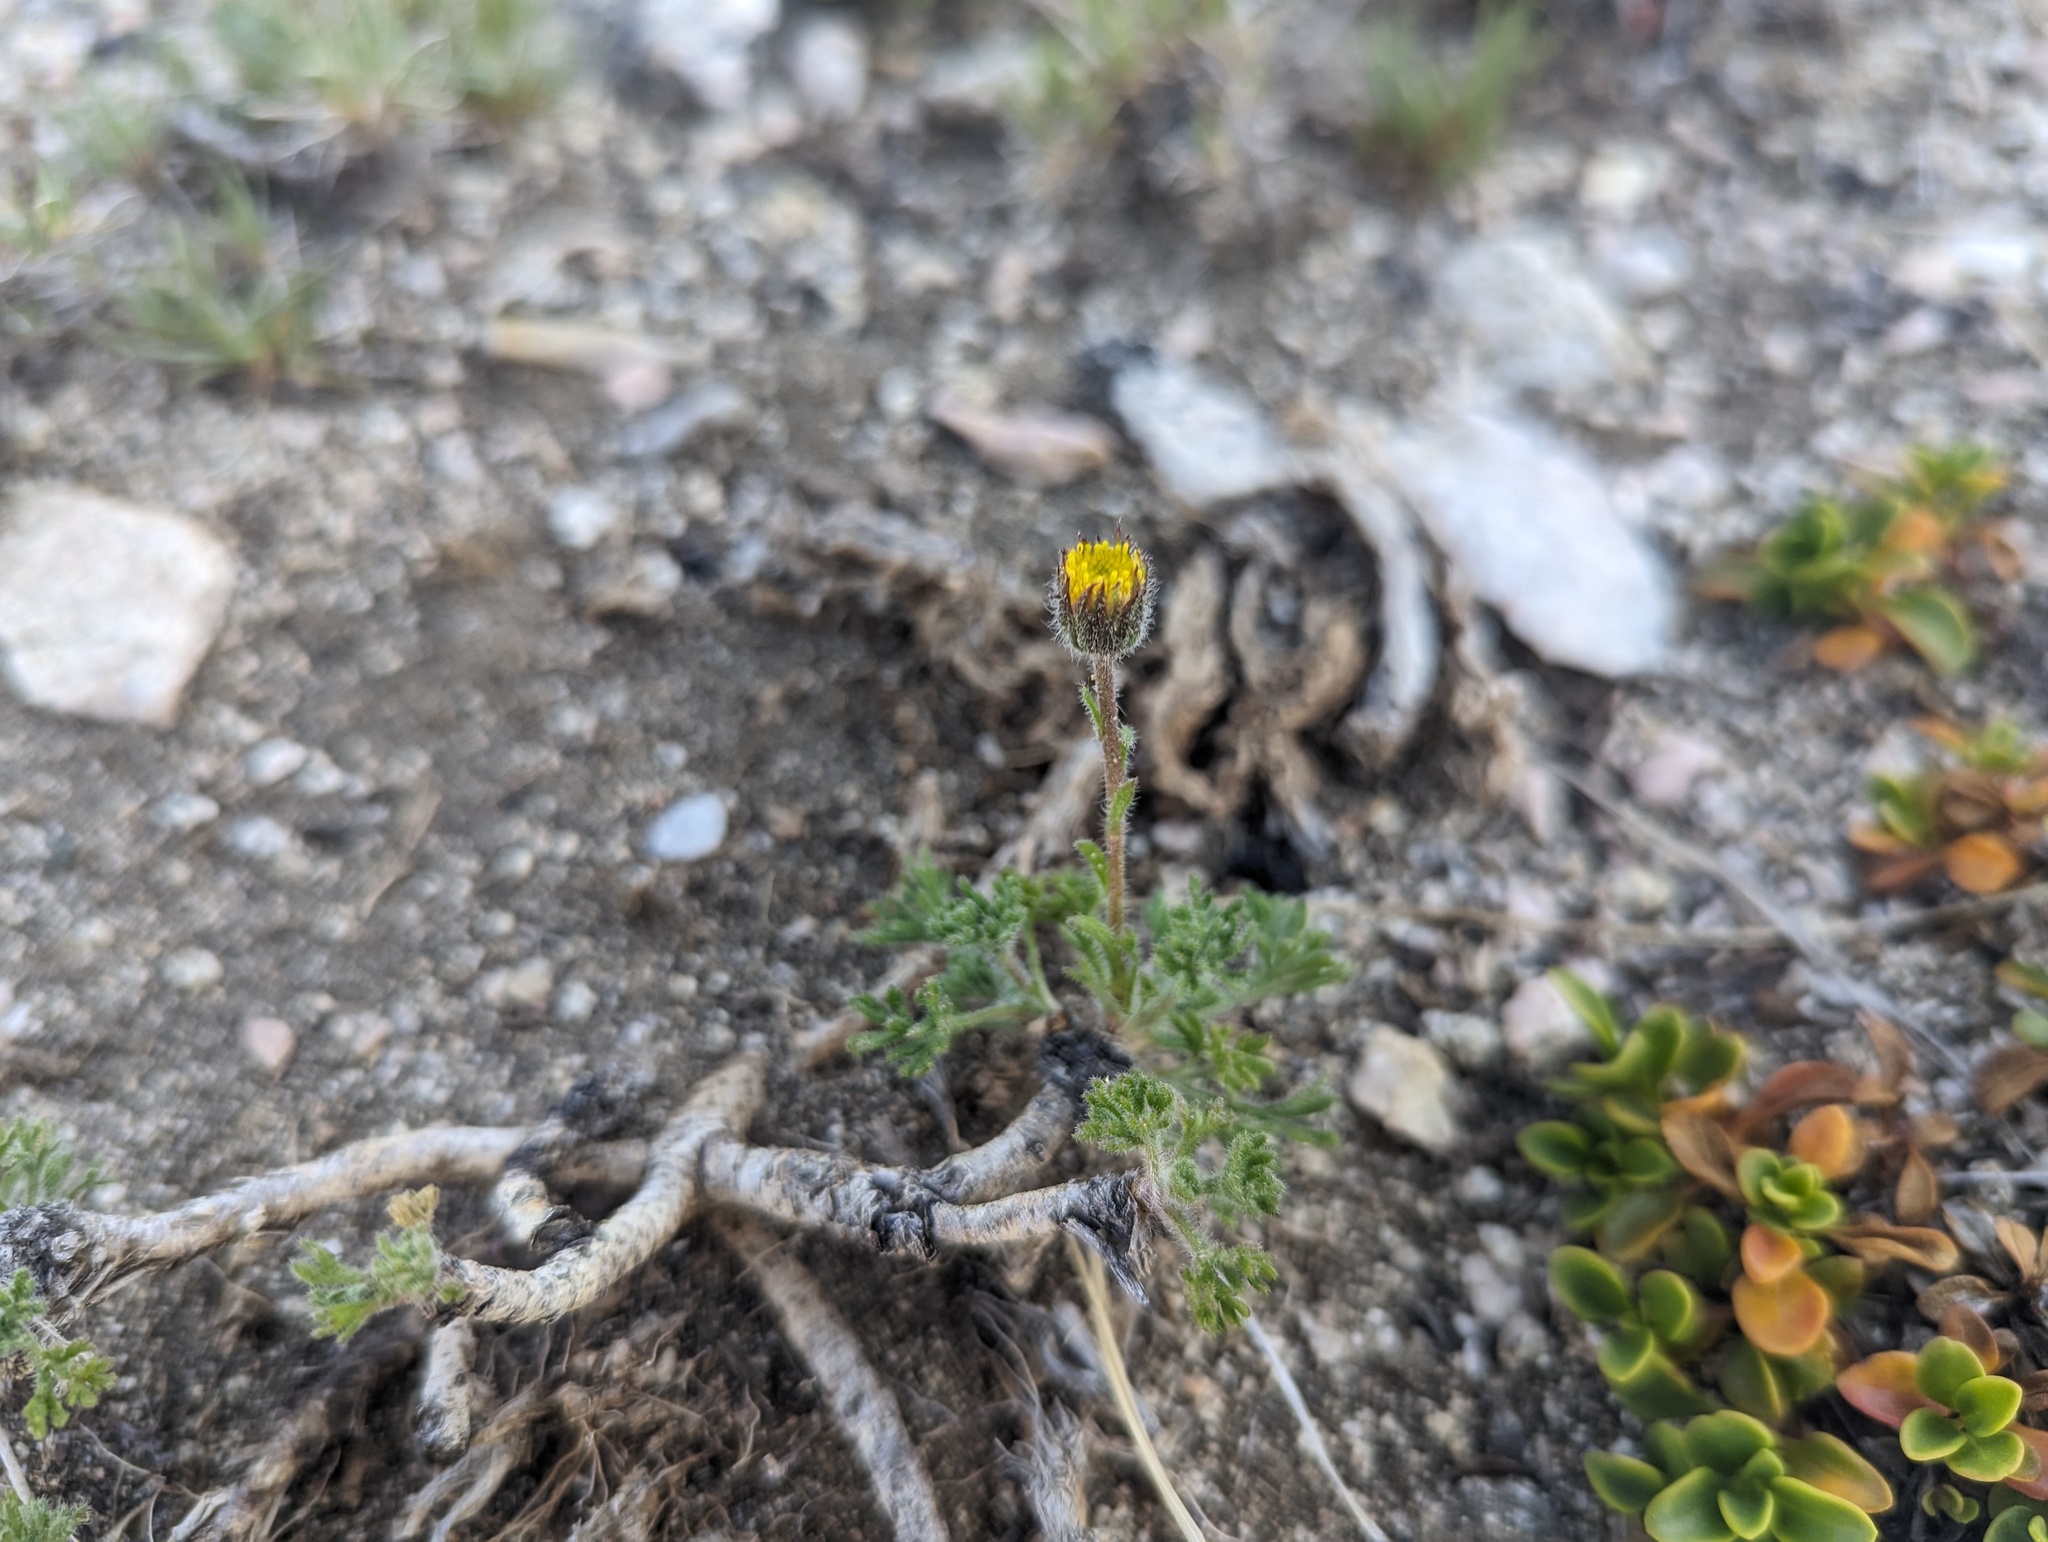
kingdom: Plantae
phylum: Tracheophyta
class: Magnoliopsida
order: Asterales
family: Asteraceae
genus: Erigeron
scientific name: Erigeron compositus
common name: Dwarf mountain fleabane
